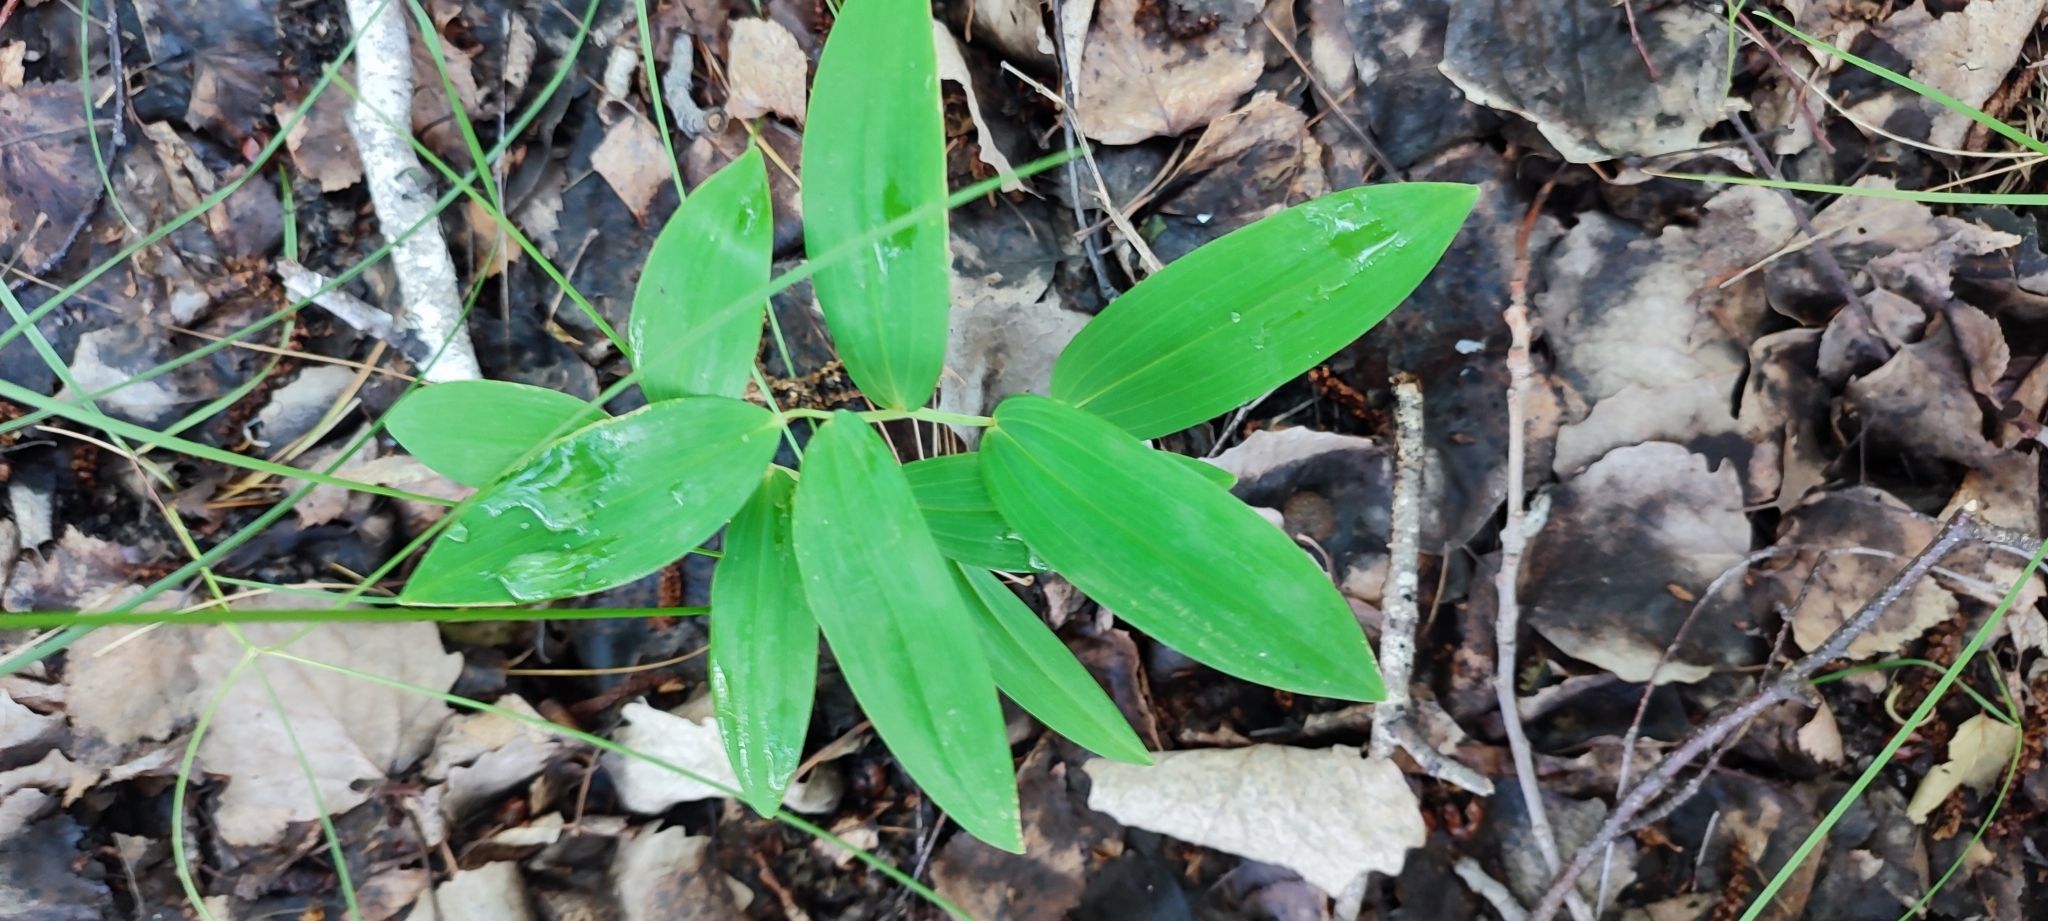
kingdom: Plantae
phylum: Tracheophyta
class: Liliopsida
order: Asparagales
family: Asparagaceae
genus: Polygonatum
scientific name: Polygonatum odoratum
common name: Angular solomon's-seal
